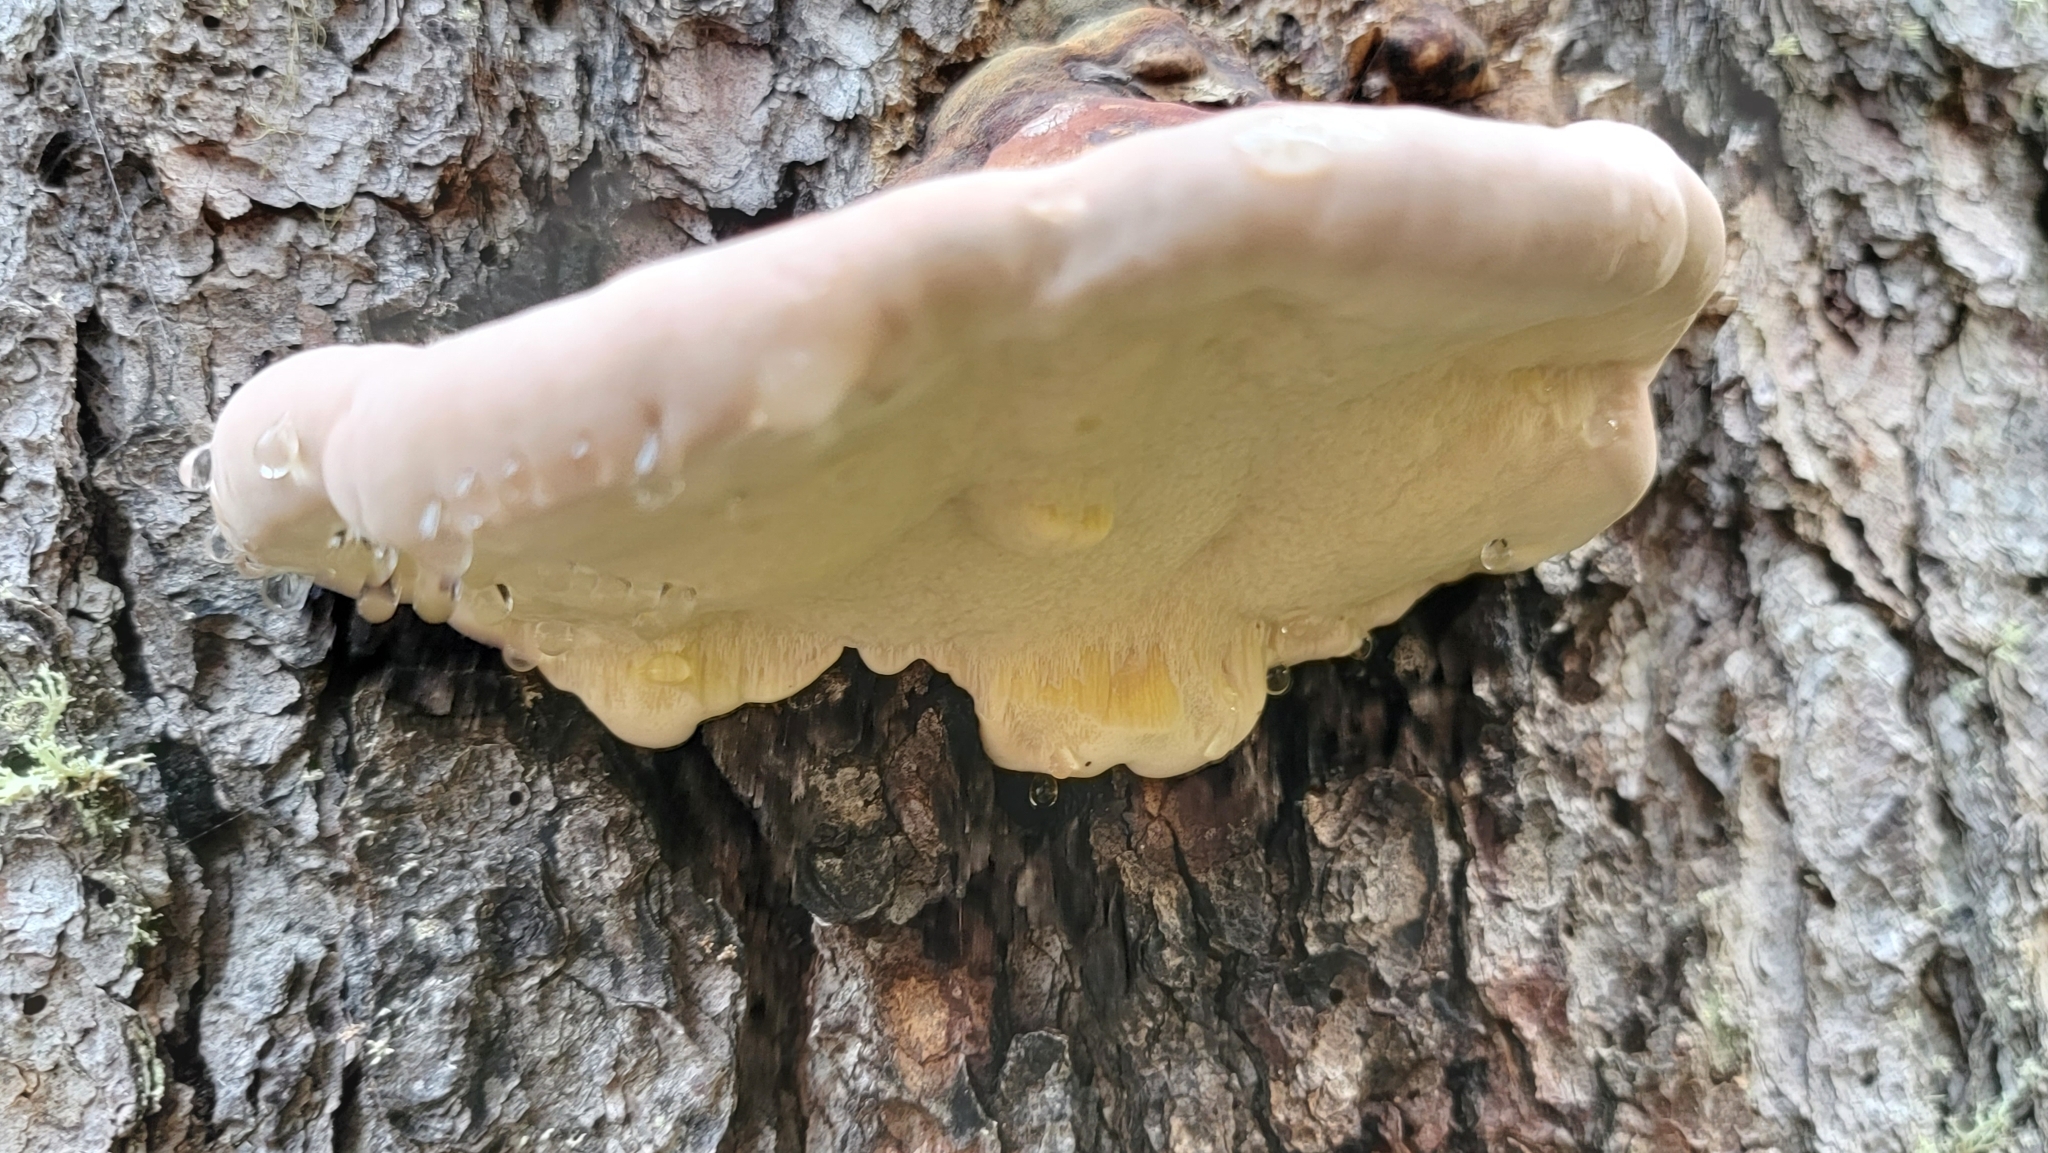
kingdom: Fungi
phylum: Basidiomycota
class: Agaricomycetes
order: Polyporales
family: Fomitopsidaceae
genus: Fomitopsis
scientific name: Fomitopsis mounceae
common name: Northern red belt
